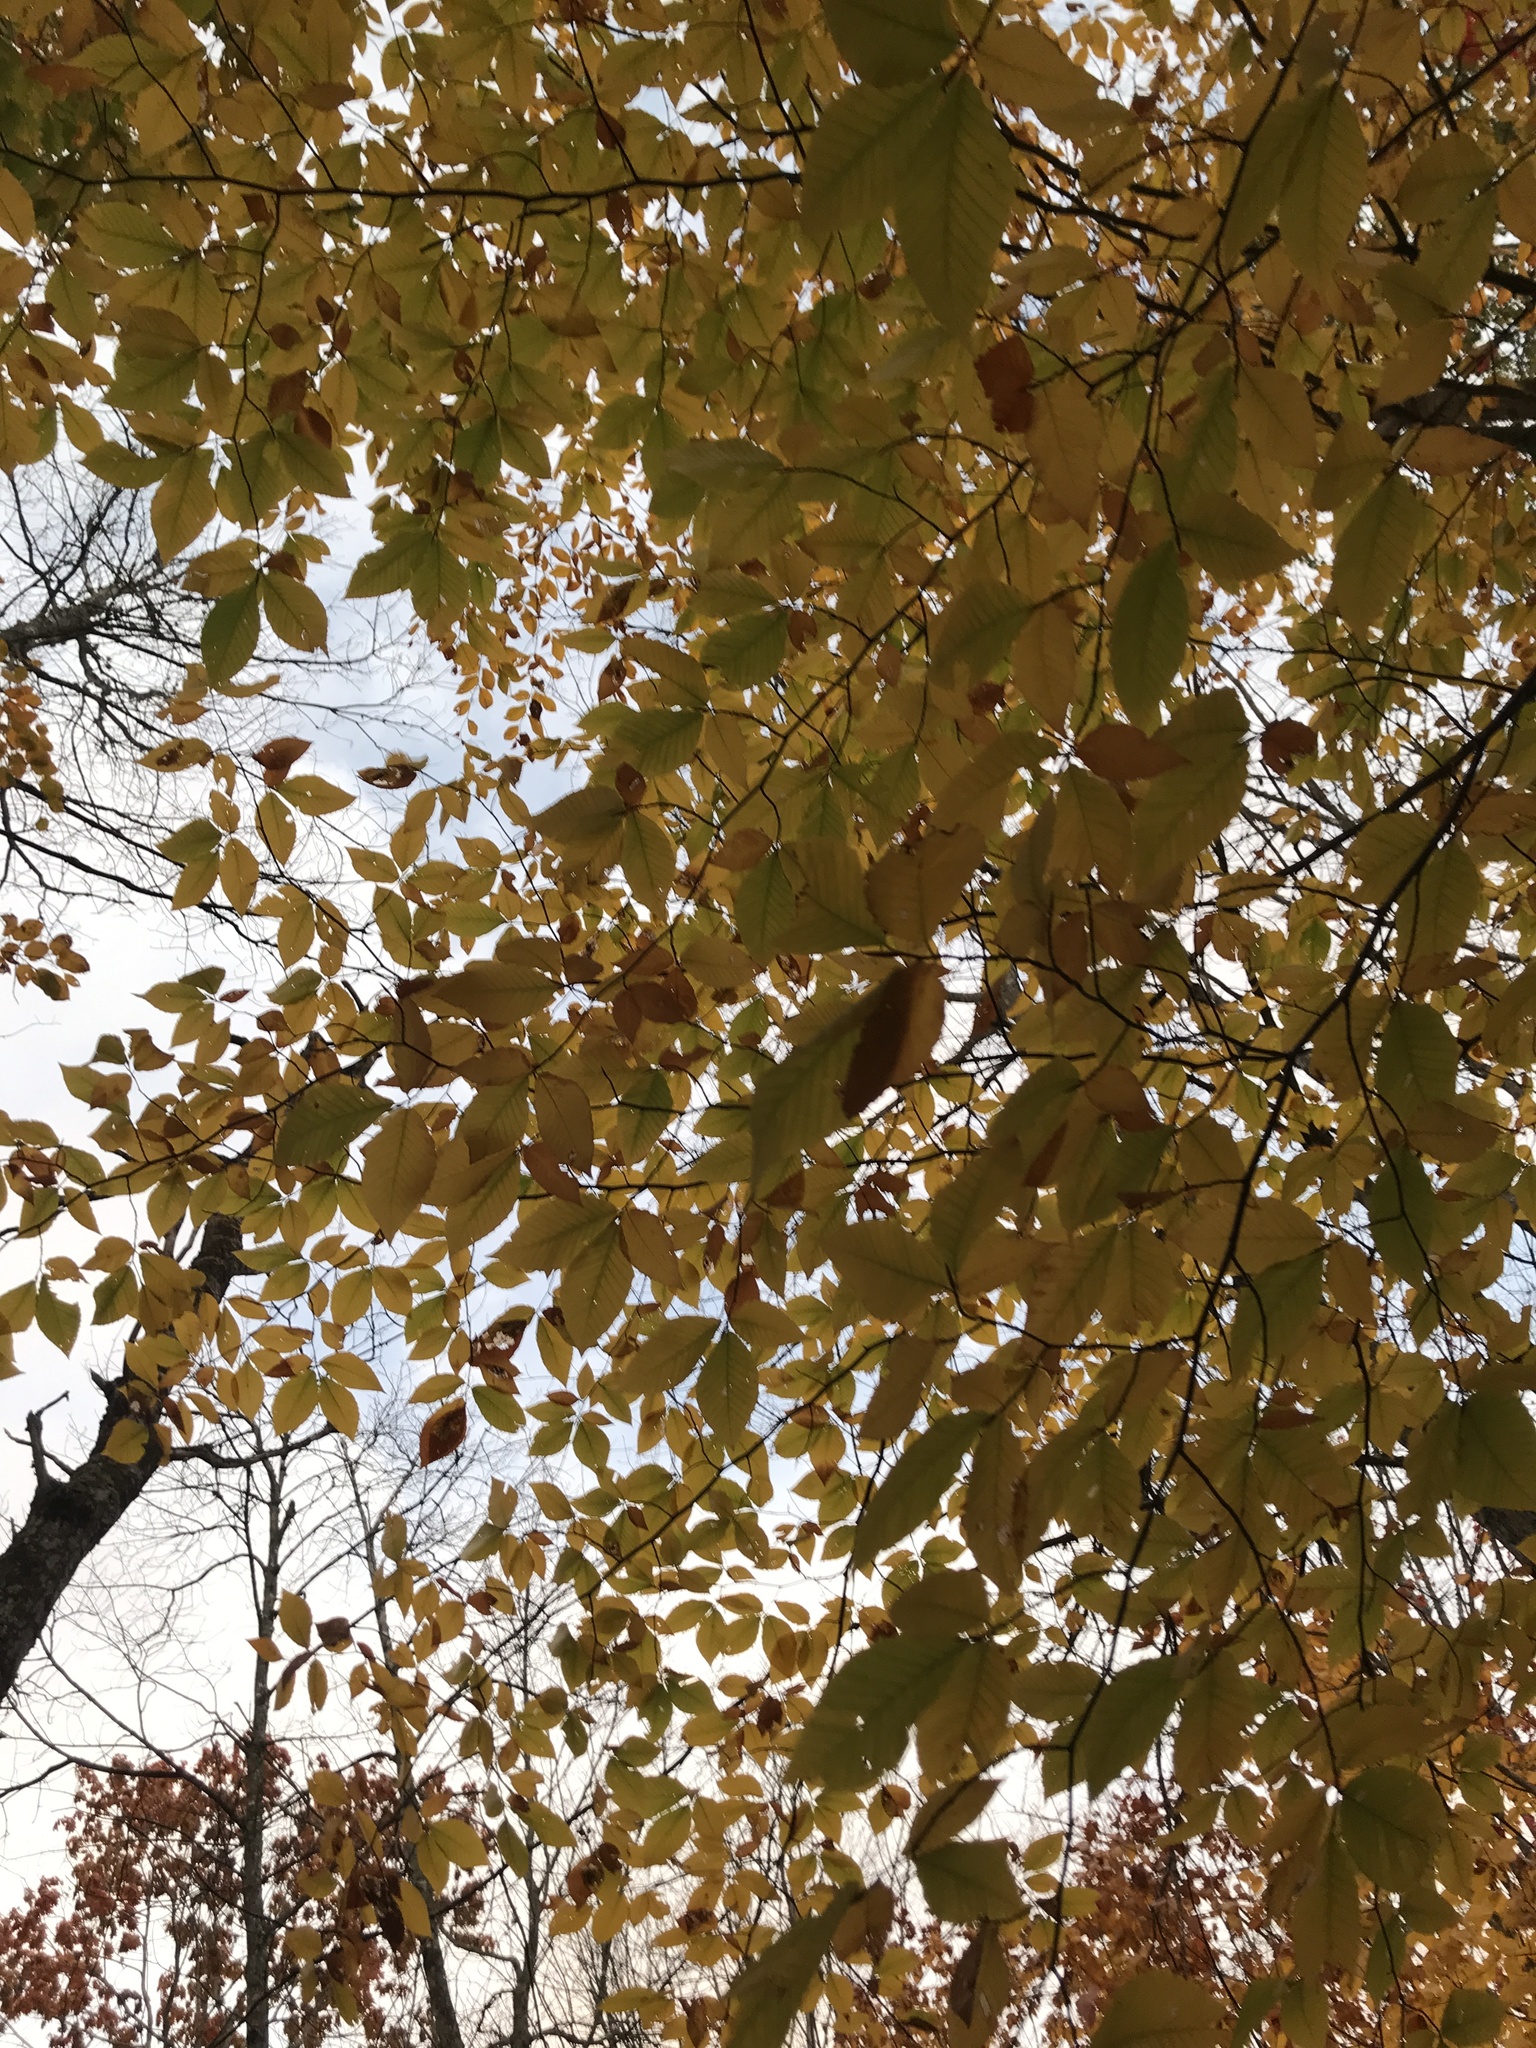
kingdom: Plantae
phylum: Tracheophyta
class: Magnoliopsida
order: Fagales
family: Fagaceae
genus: Fagus
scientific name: Fagus grandifolia
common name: American beech
